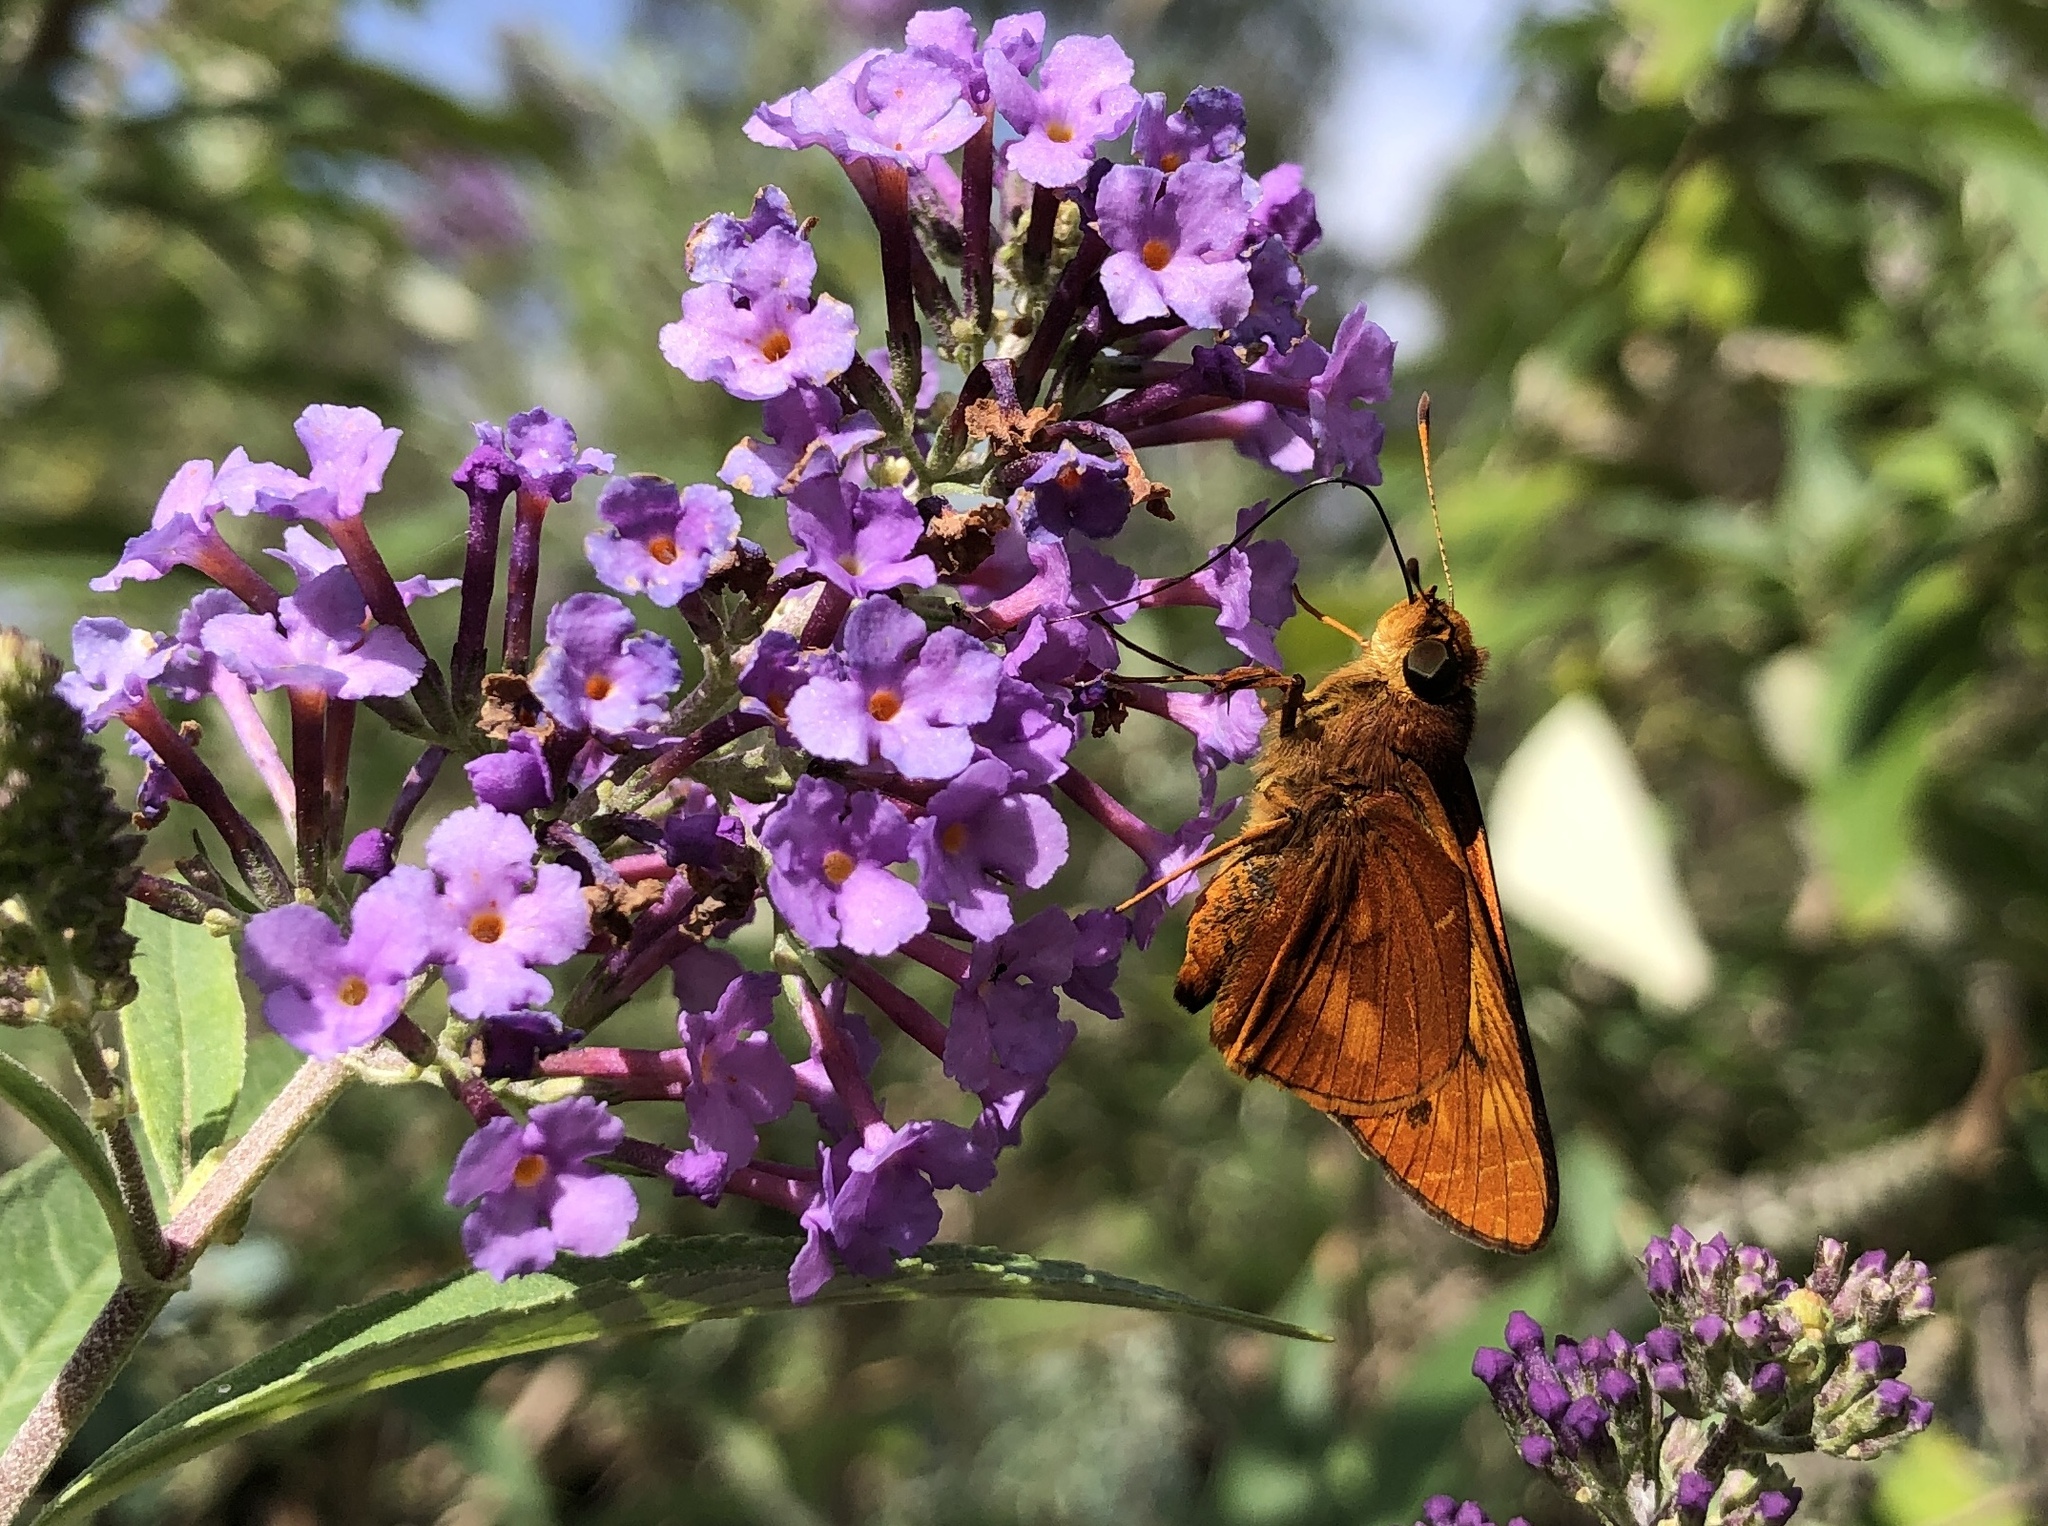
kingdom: Animalia
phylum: Arthropoda
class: Insecta
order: Lepidoptera
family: Hesperiidae
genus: Cephrenes
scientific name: Cephrenes augiades
